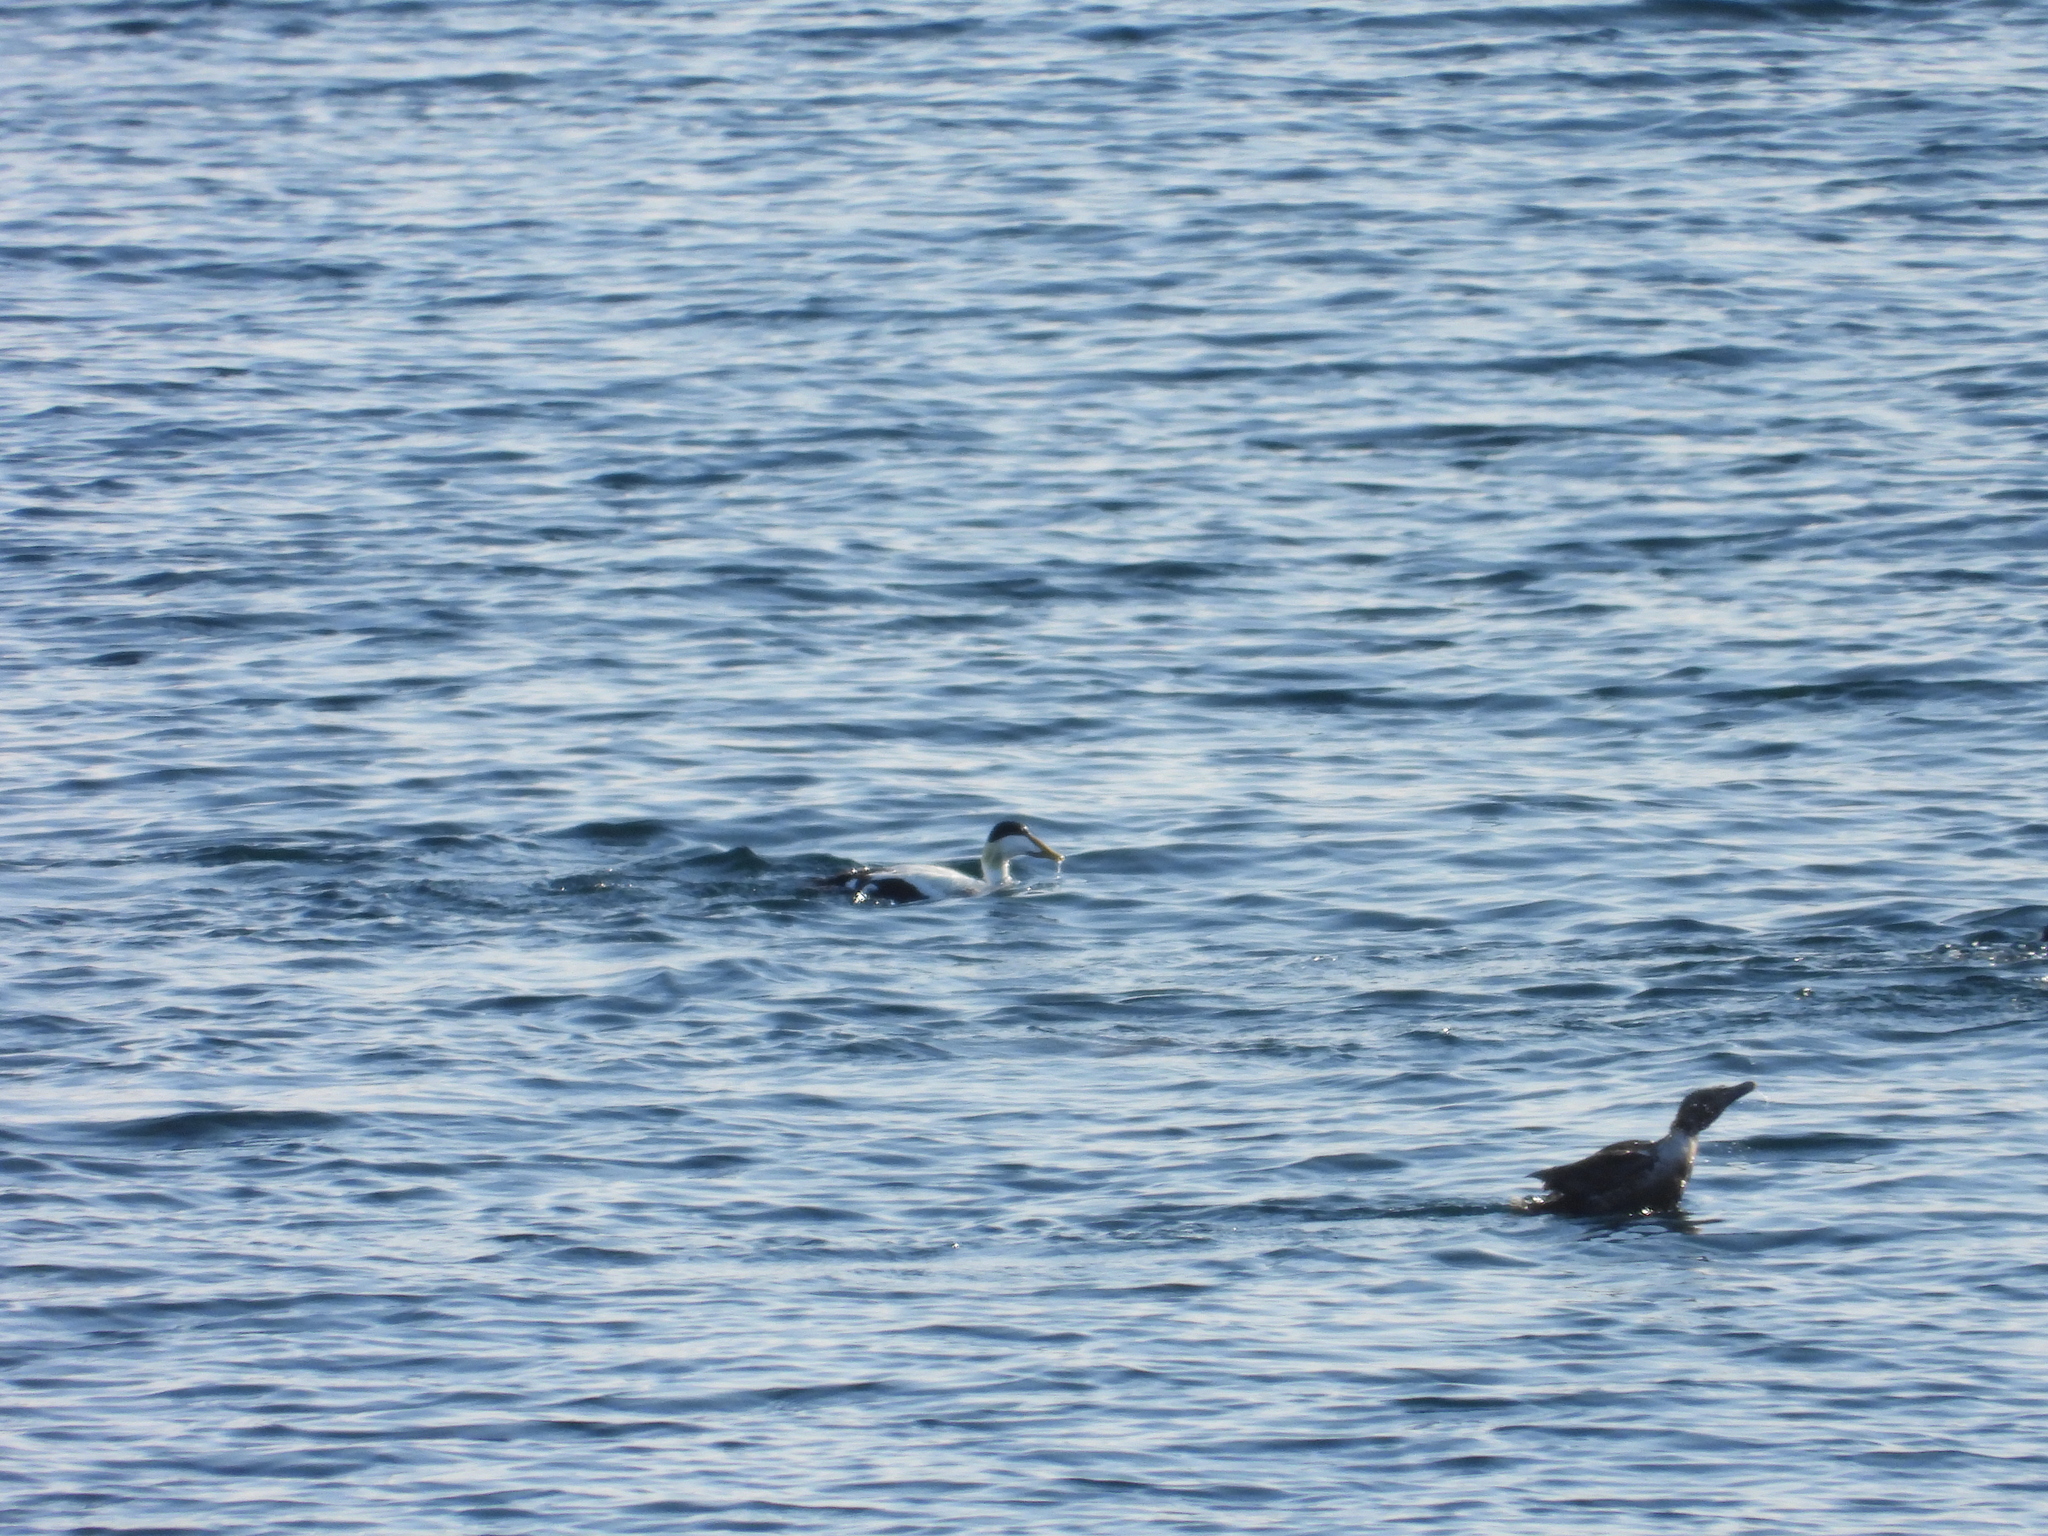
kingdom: Animalia
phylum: Chordata
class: Aves
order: Anseriformes
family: Anatidae
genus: Somateria
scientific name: Somateria mollissima
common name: Common eider
